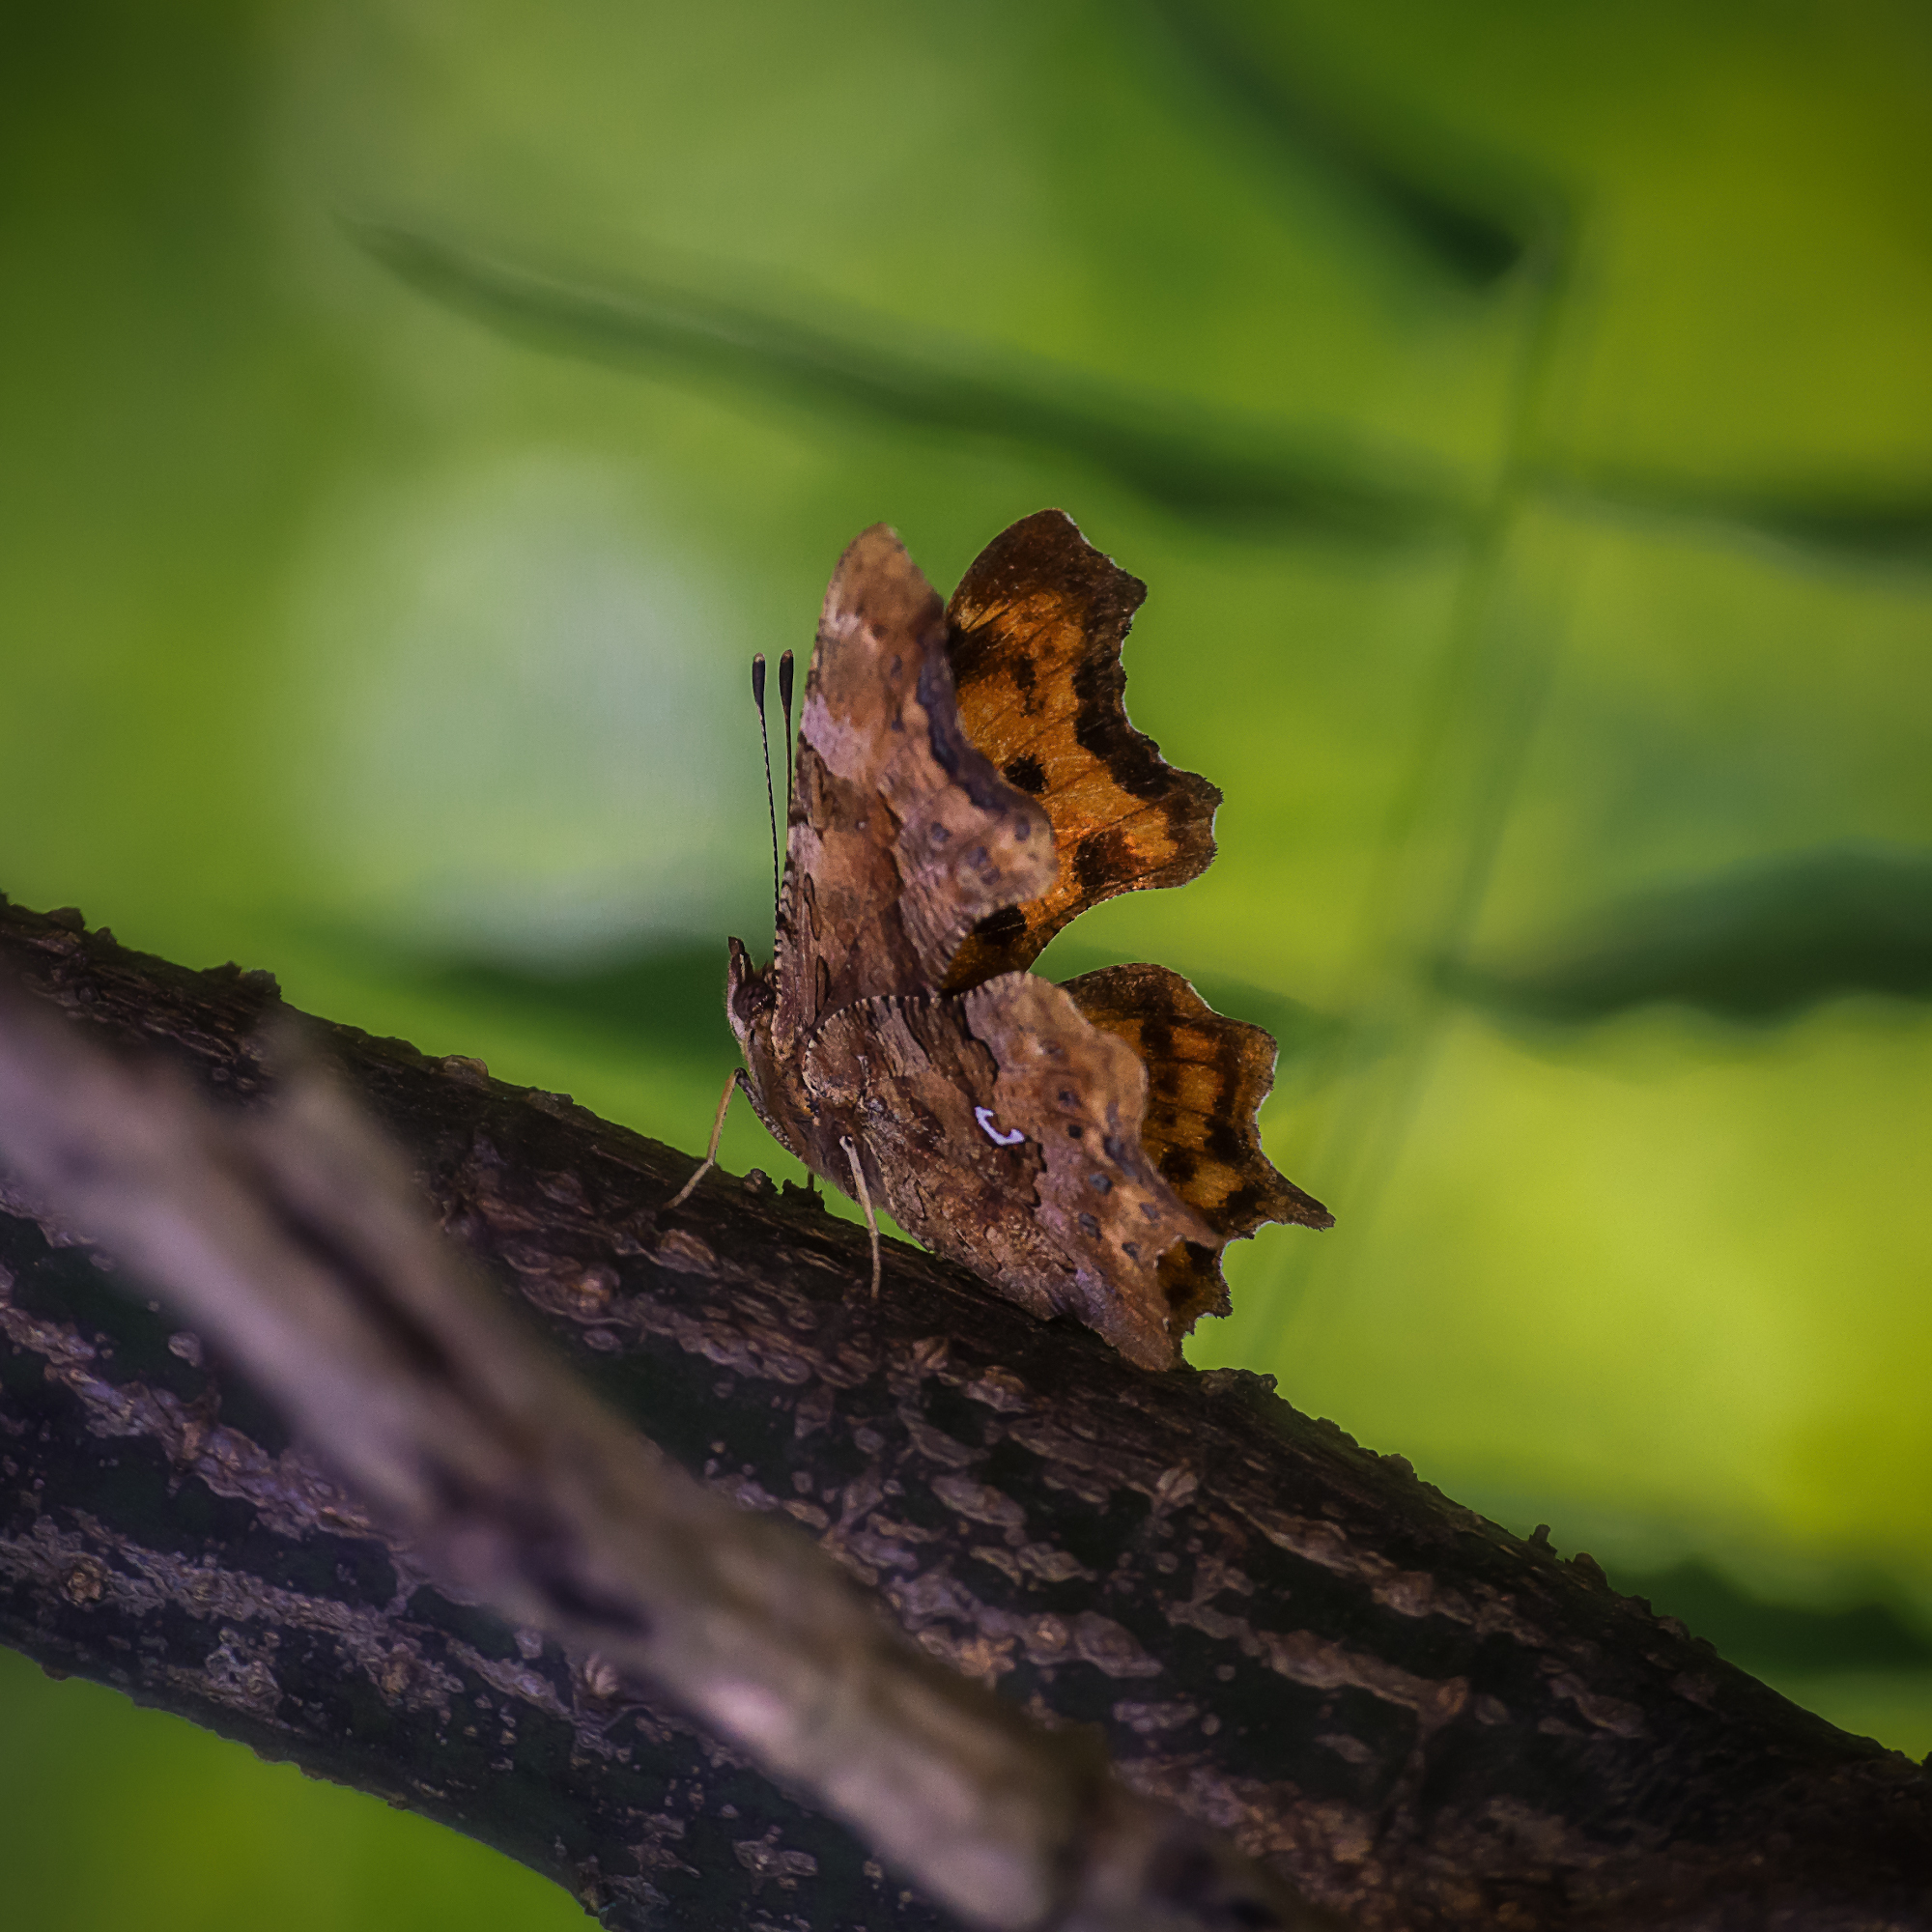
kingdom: Animalia
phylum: Arthropoda
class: Insecta
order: Lepidoptera
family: Nymphalidae
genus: Polygonia
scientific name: Polygonia c-album
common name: Comma
